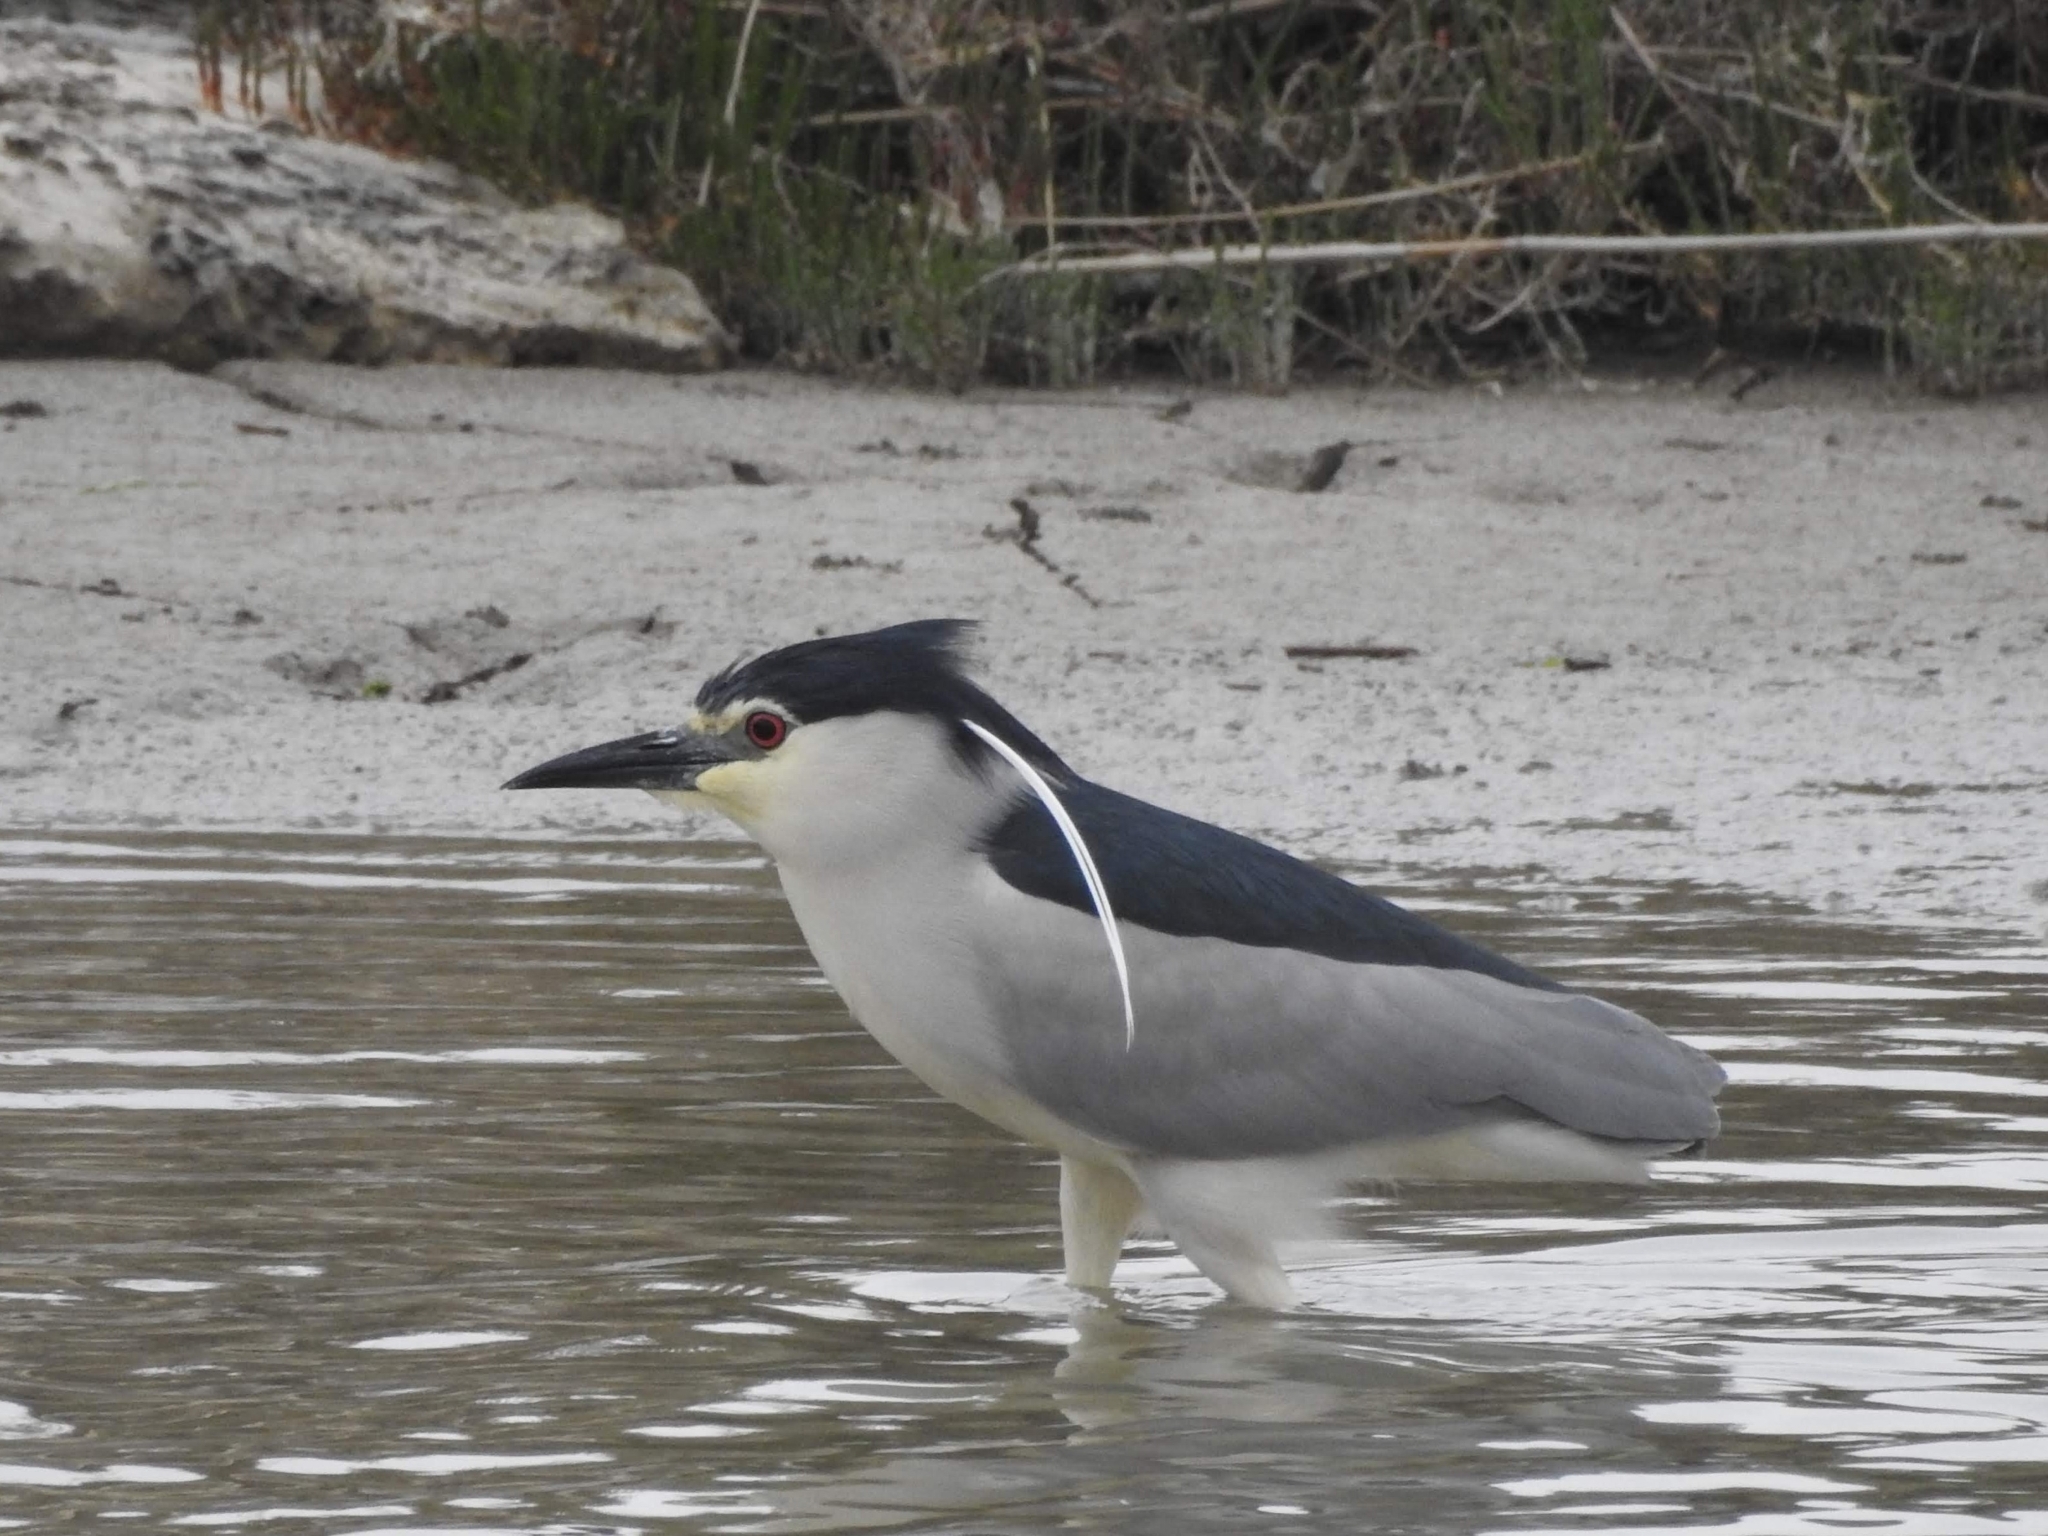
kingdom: Animalia
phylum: Chordata
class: Aves
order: Pelecaniformes
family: Ardeidae
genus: Nycticorax
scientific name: Nycticorax nycticorax
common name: Black-crowned night heron
